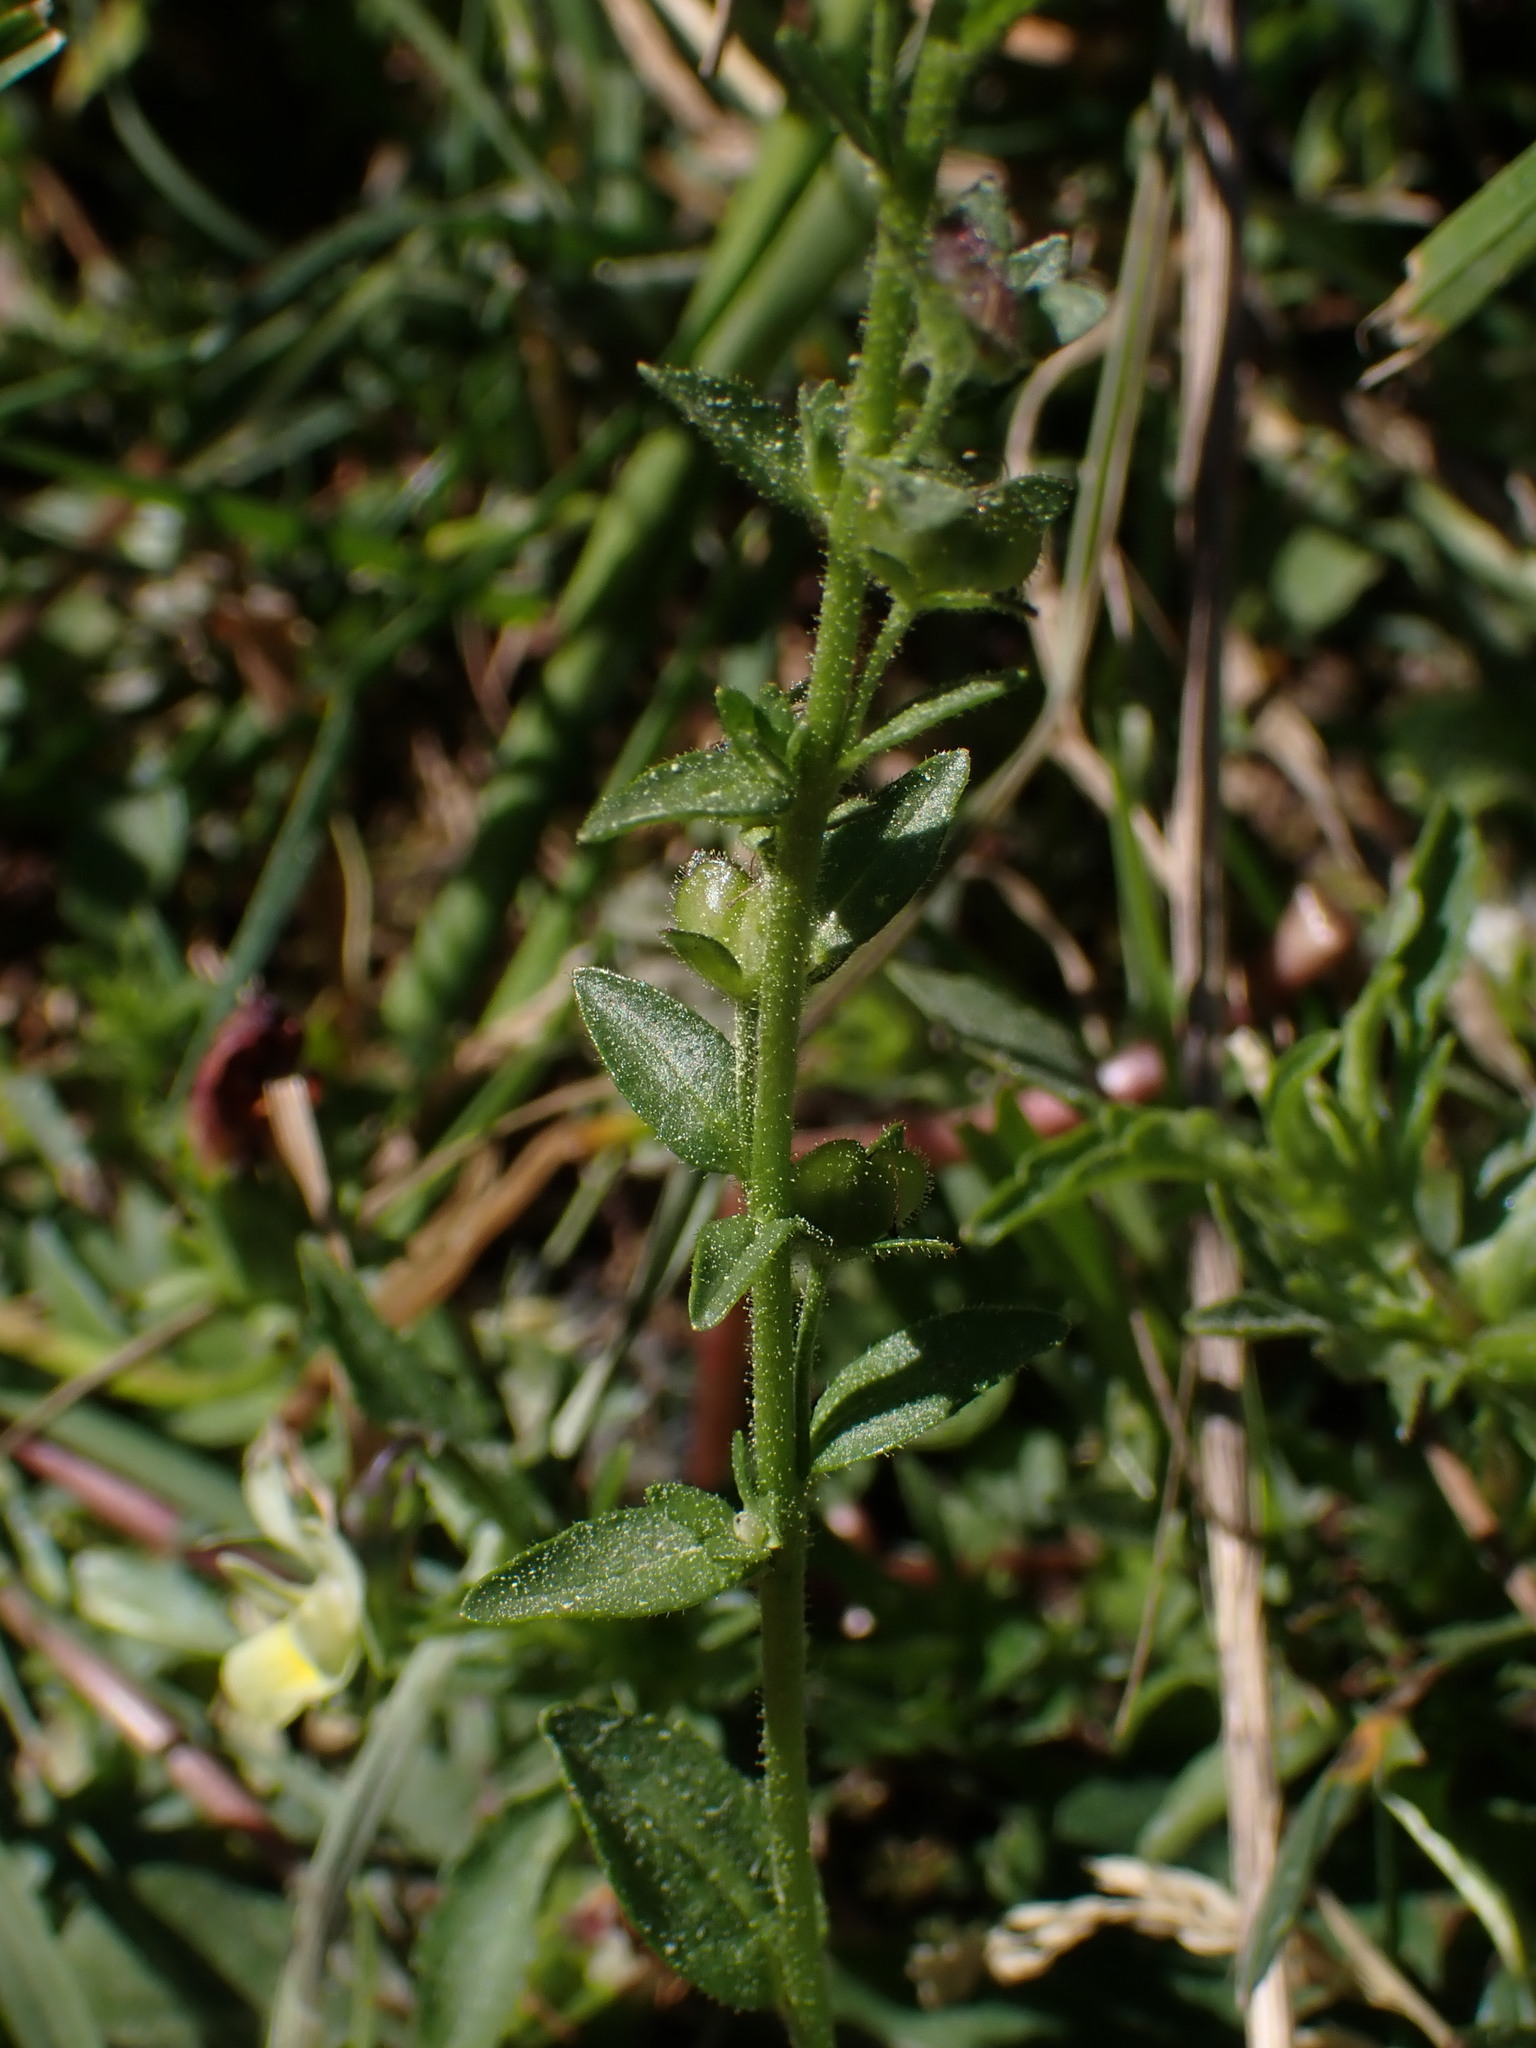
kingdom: Plantae
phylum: Tracheophyta
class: Magnoliopsida
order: Lamiales
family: Plantaginaceae
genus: Veronica
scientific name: Veronica serpyllifolia
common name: Thyme-leaved speedwell
